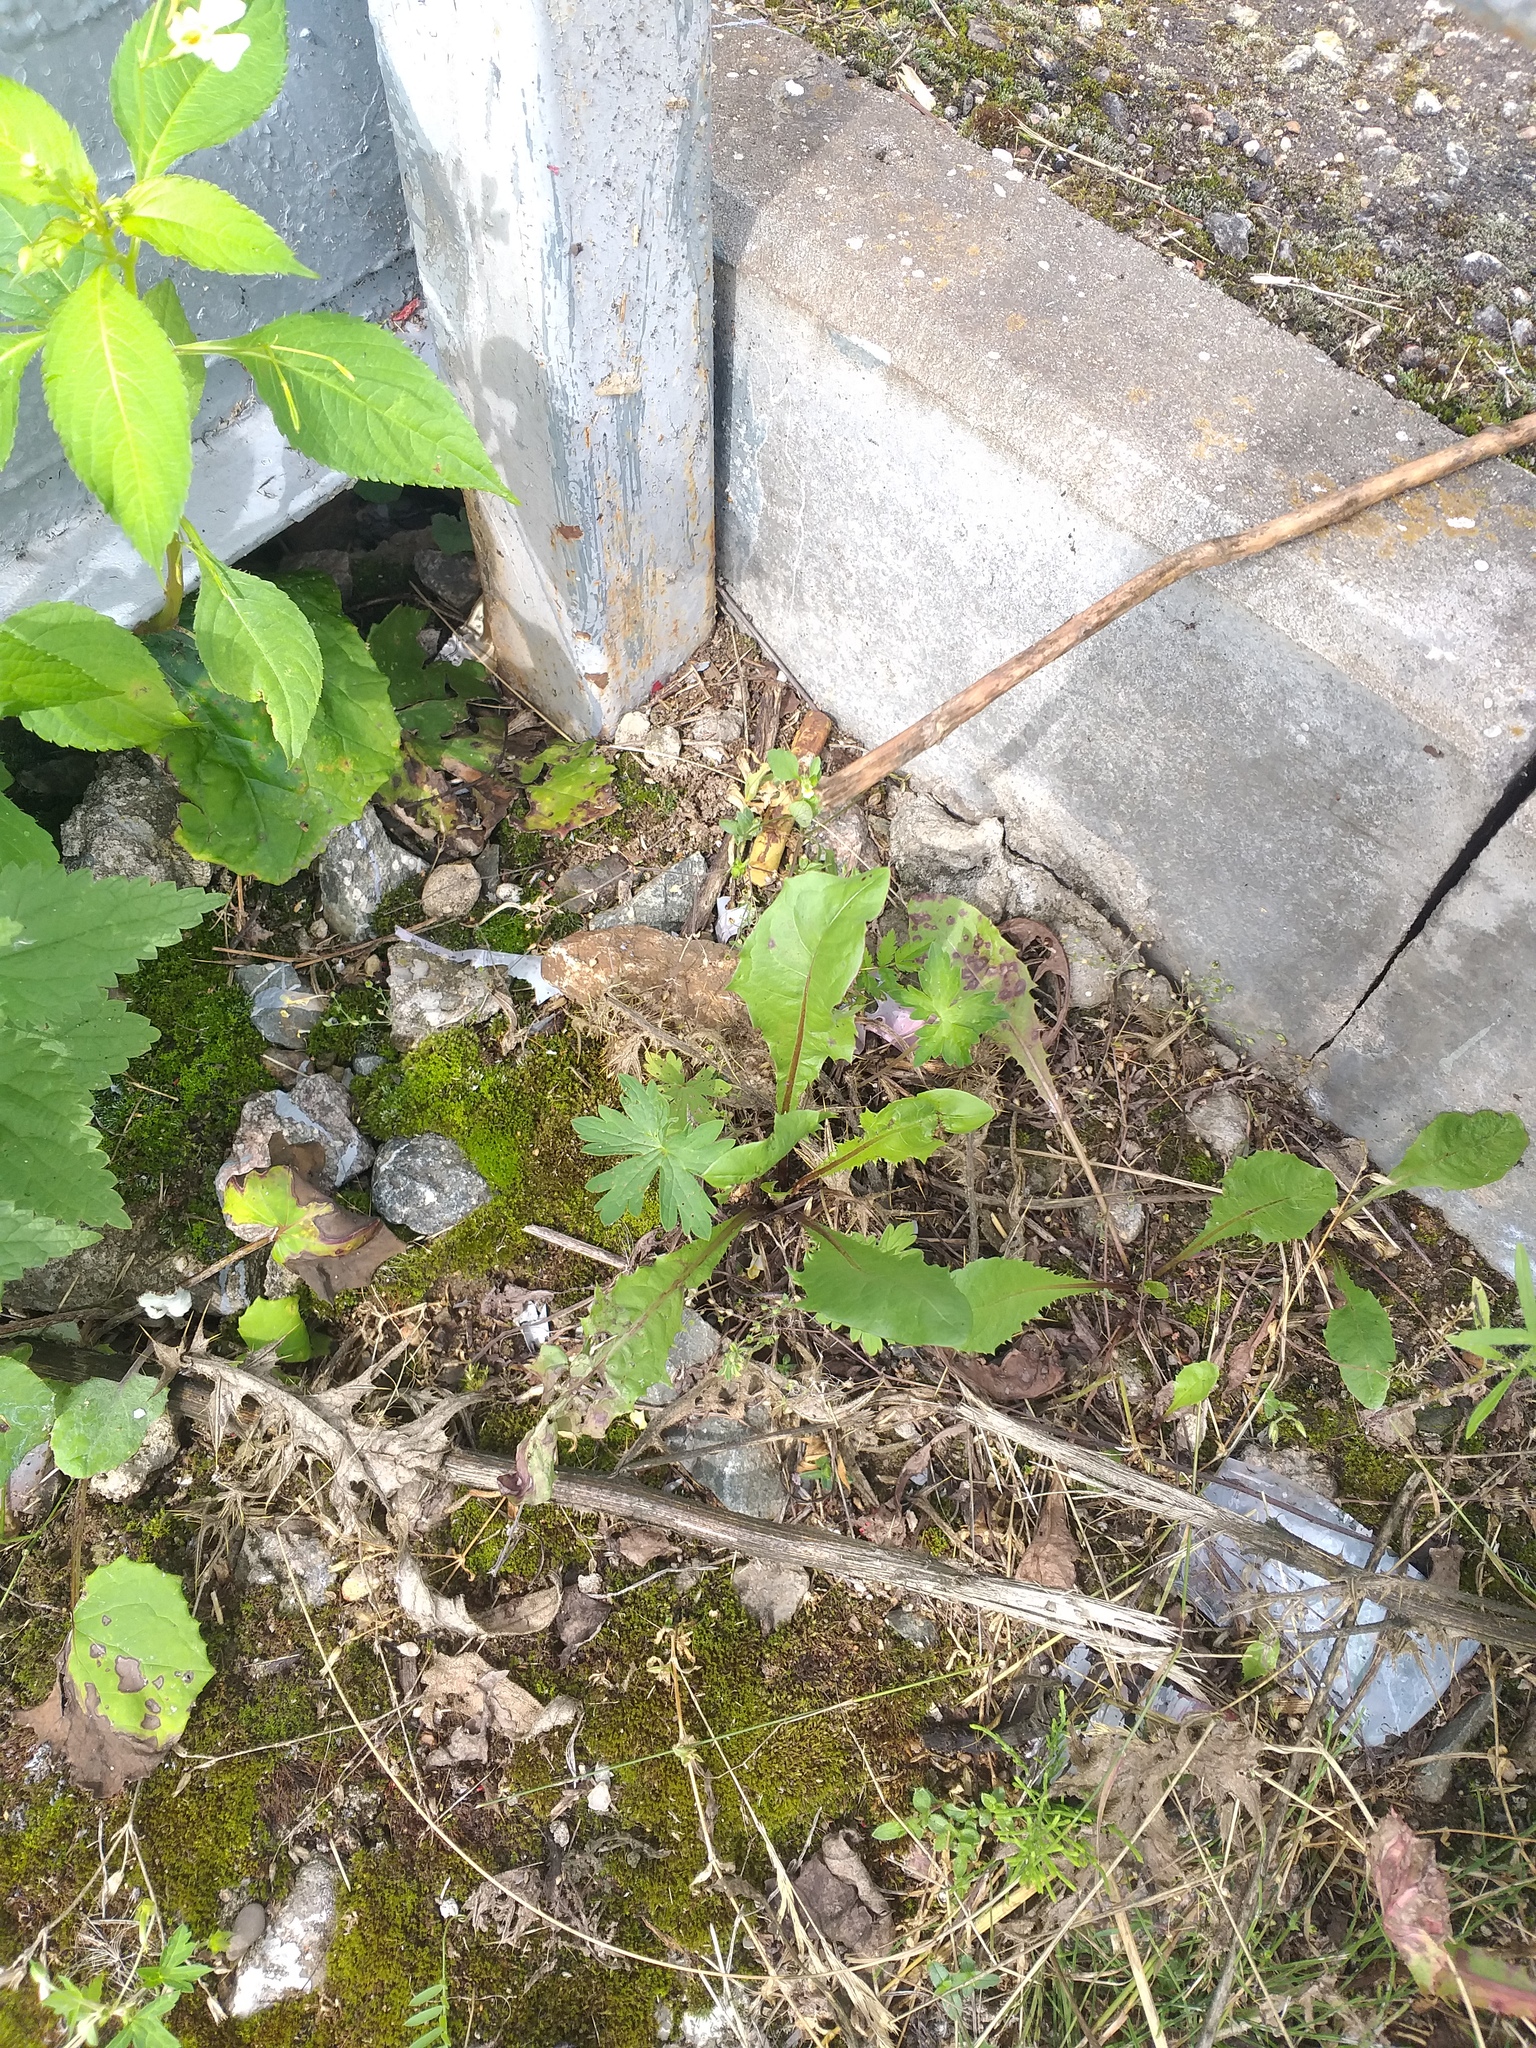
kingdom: Plantae
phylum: Tracheophyta
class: Magnoliopsida
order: Asterales
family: Asteraceae
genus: Taraxacum
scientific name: Taraxacum officinale
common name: Common dandelion
